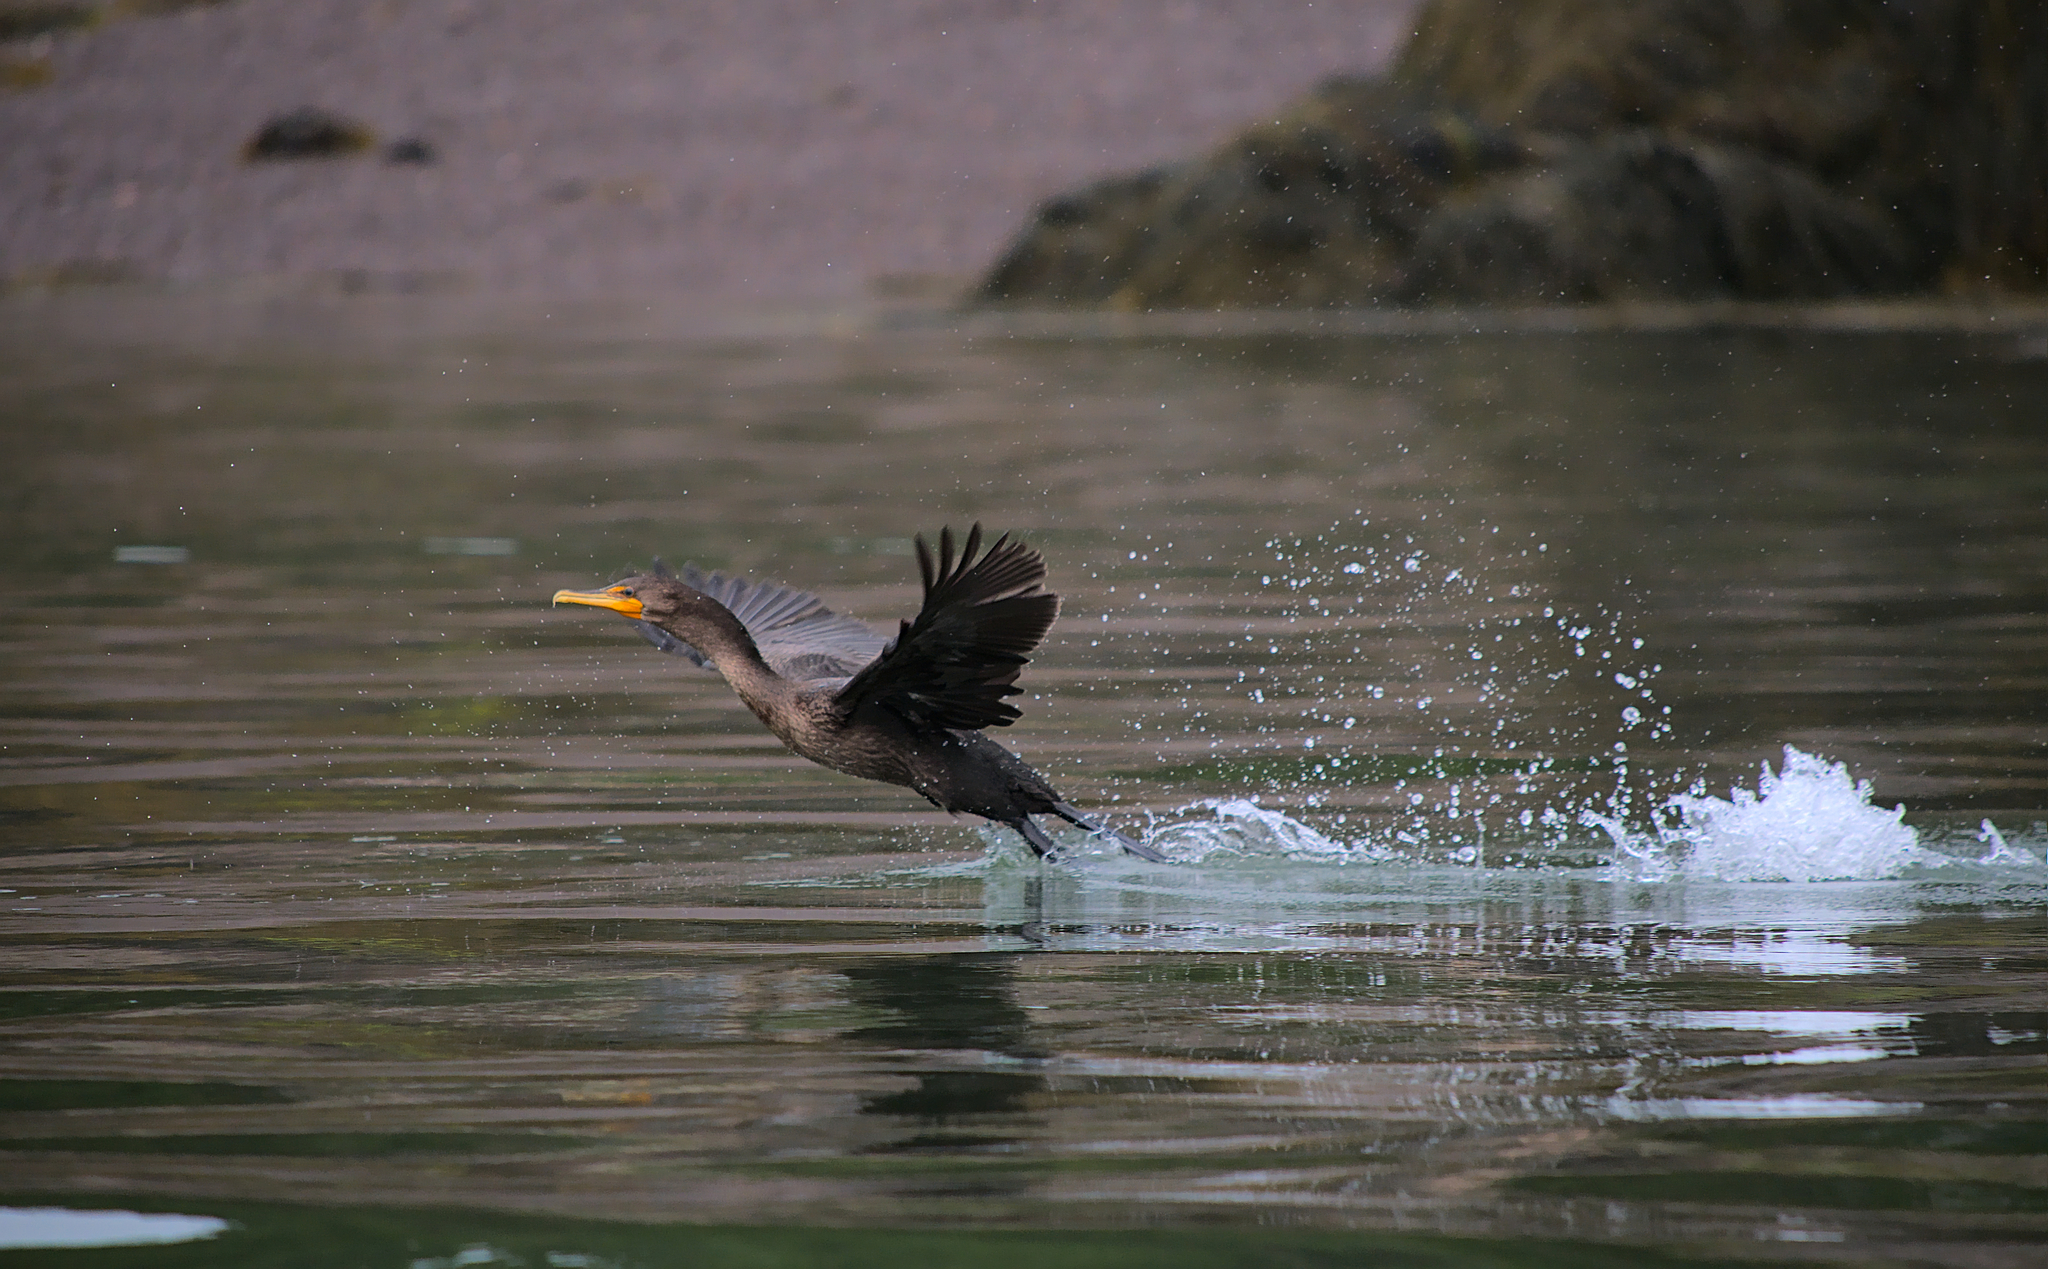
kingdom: Animalia
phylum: Chordata
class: Aves
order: Suliformes
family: Phalacrocoracidae
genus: Phalacrocorax
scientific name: Phalacrocorax auritus
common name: Double-crested cormorant
